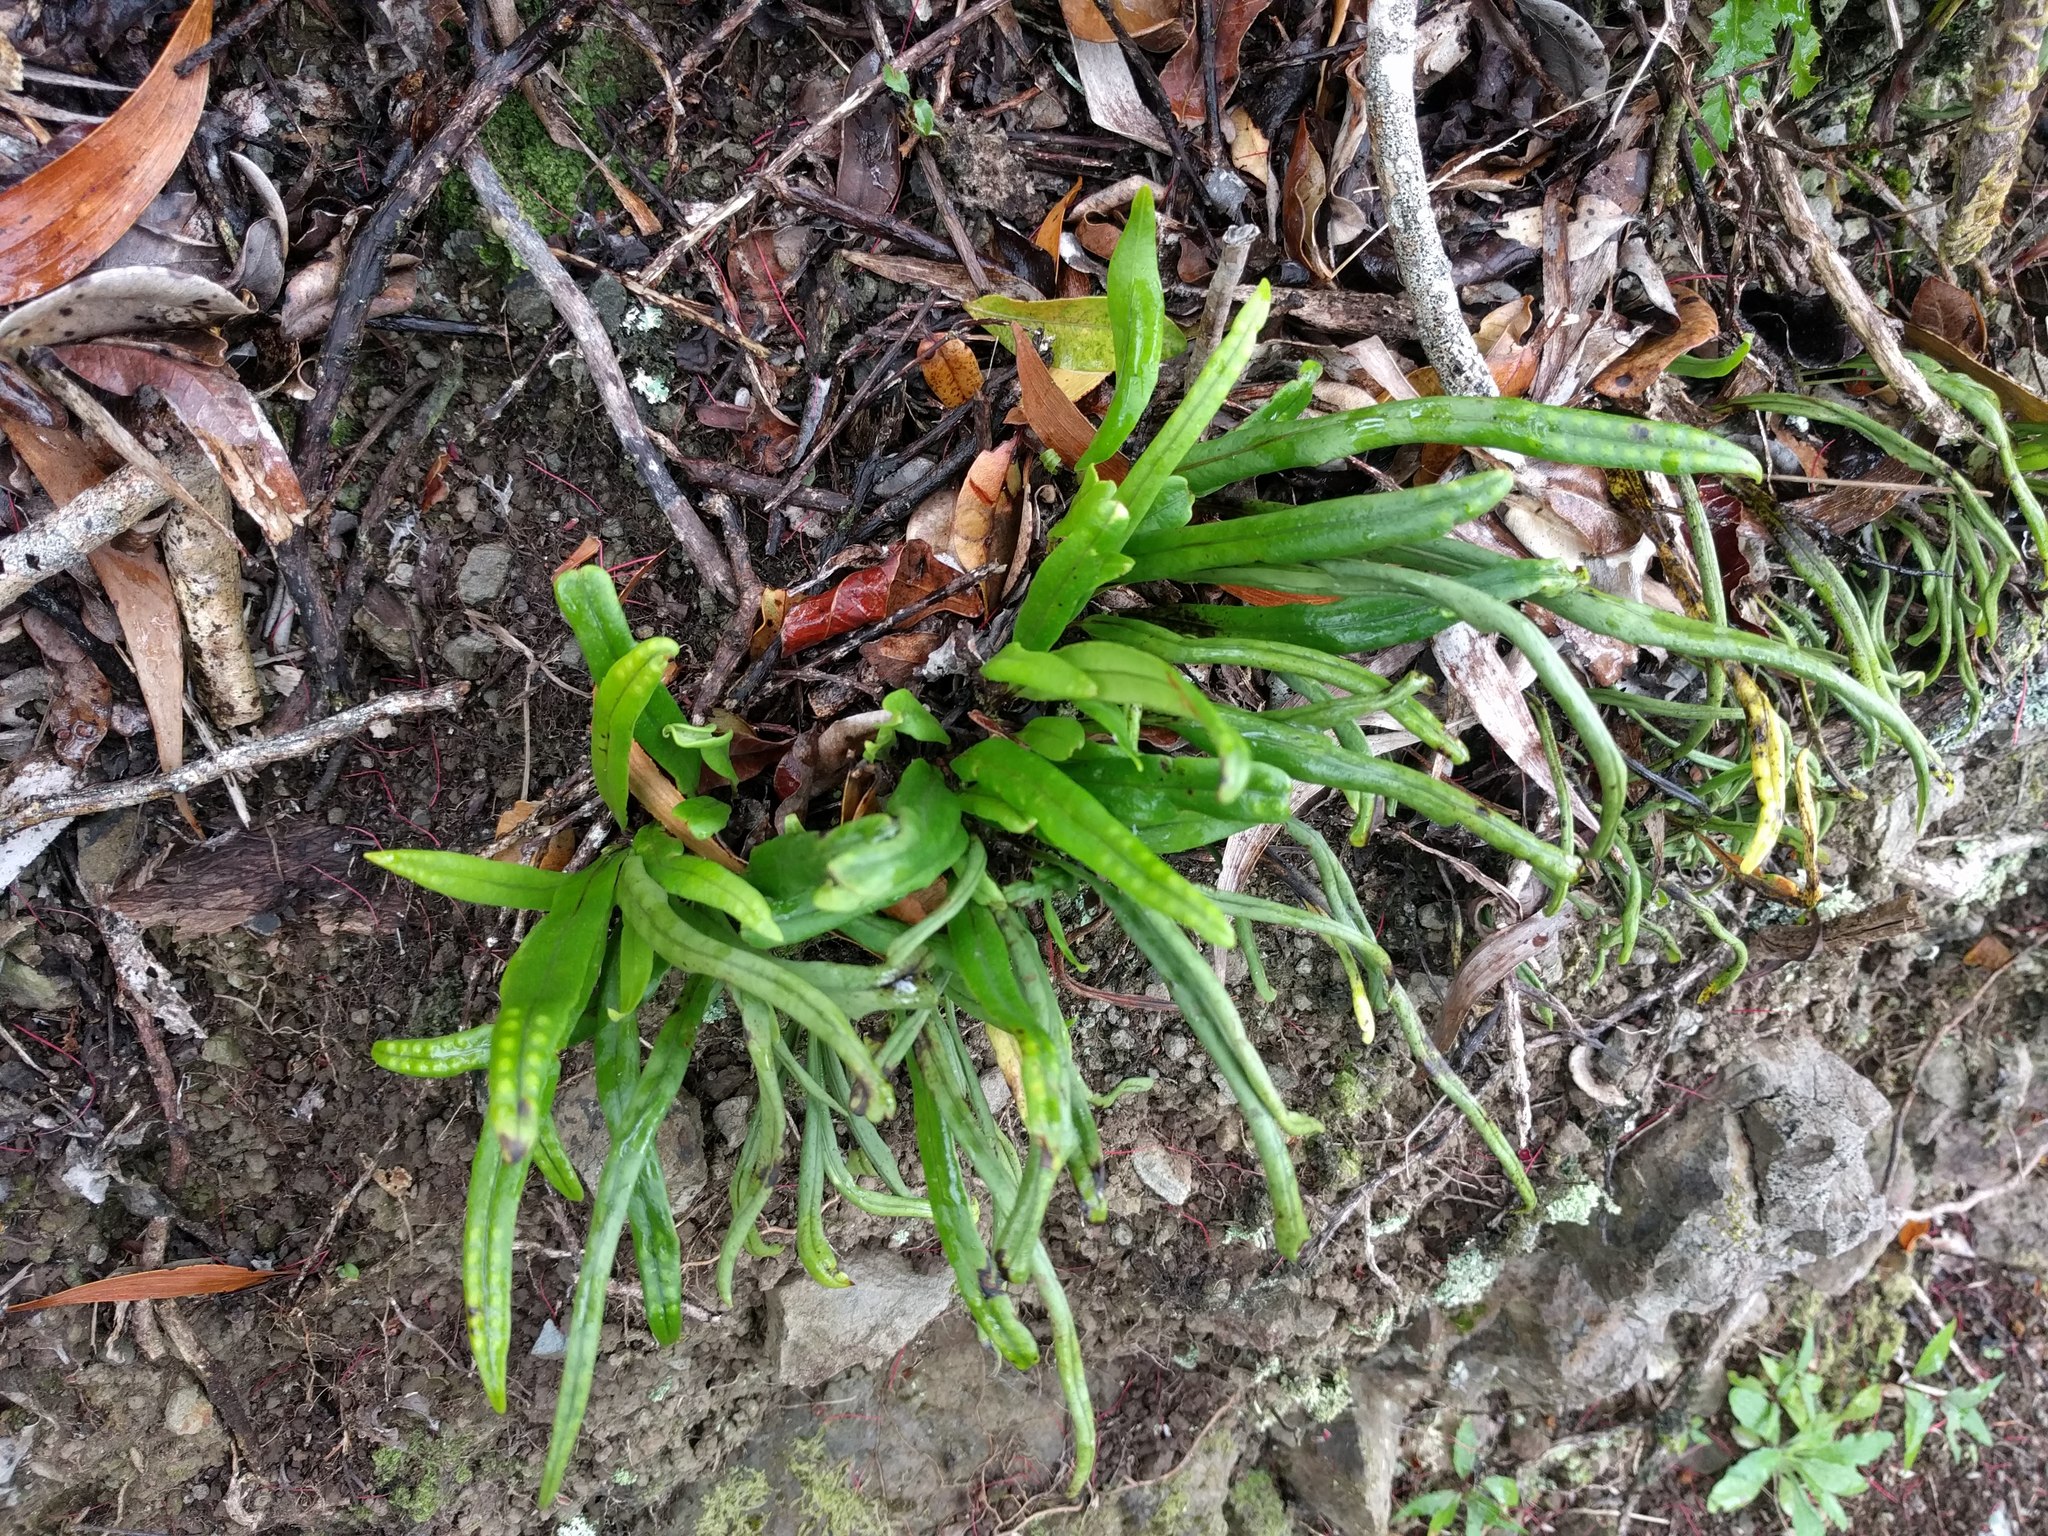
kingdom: Plantae
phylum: Tracheophyta
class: Polypodiopsida
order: Polypodiales
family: Polypodiaceae
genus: Lepisorus
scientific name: Lepisorus thunbergianus
